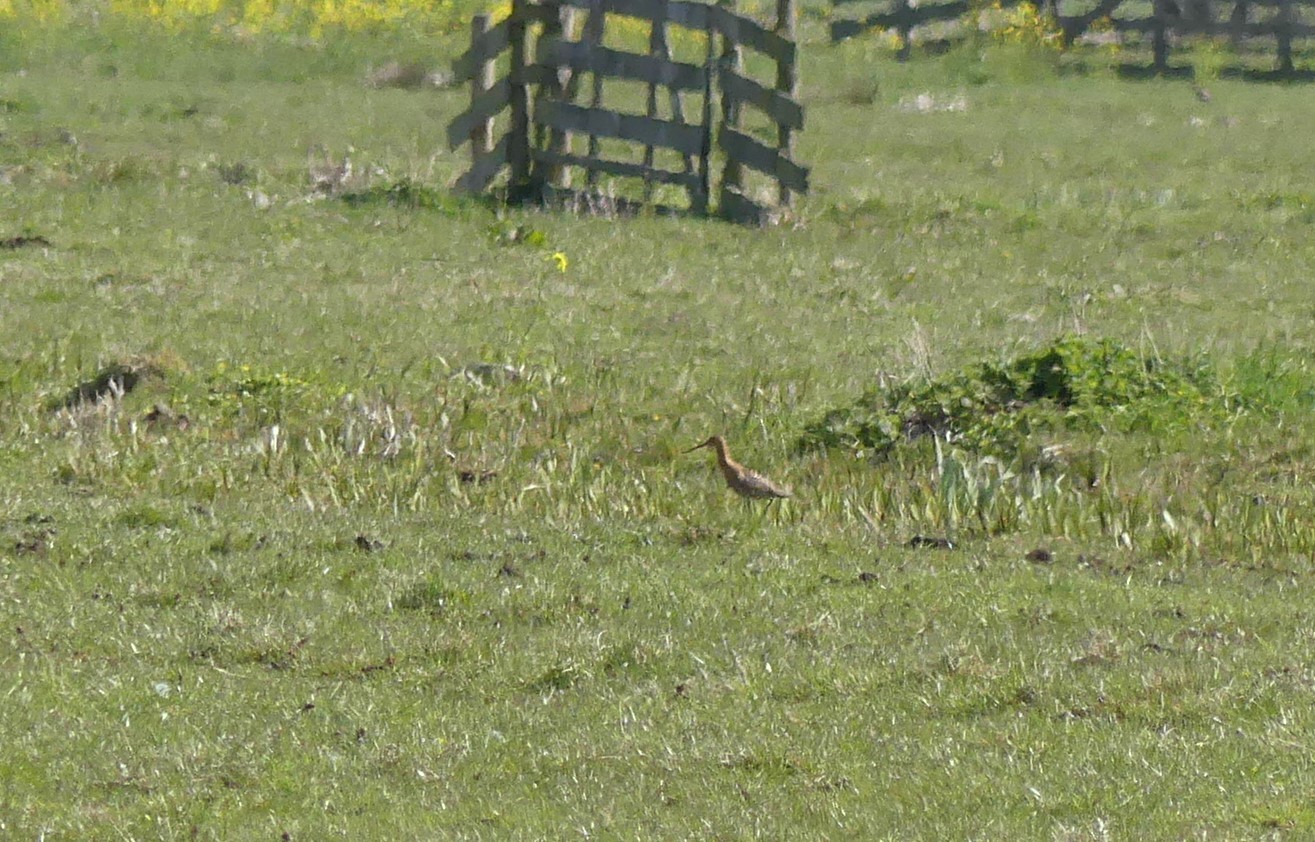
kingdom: Animalia
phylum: Chordata
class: Aves
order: Charadriiformes
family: Scolopacidae
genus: Limosa
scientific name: Limosa limosa
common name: Black-tailed godwit
